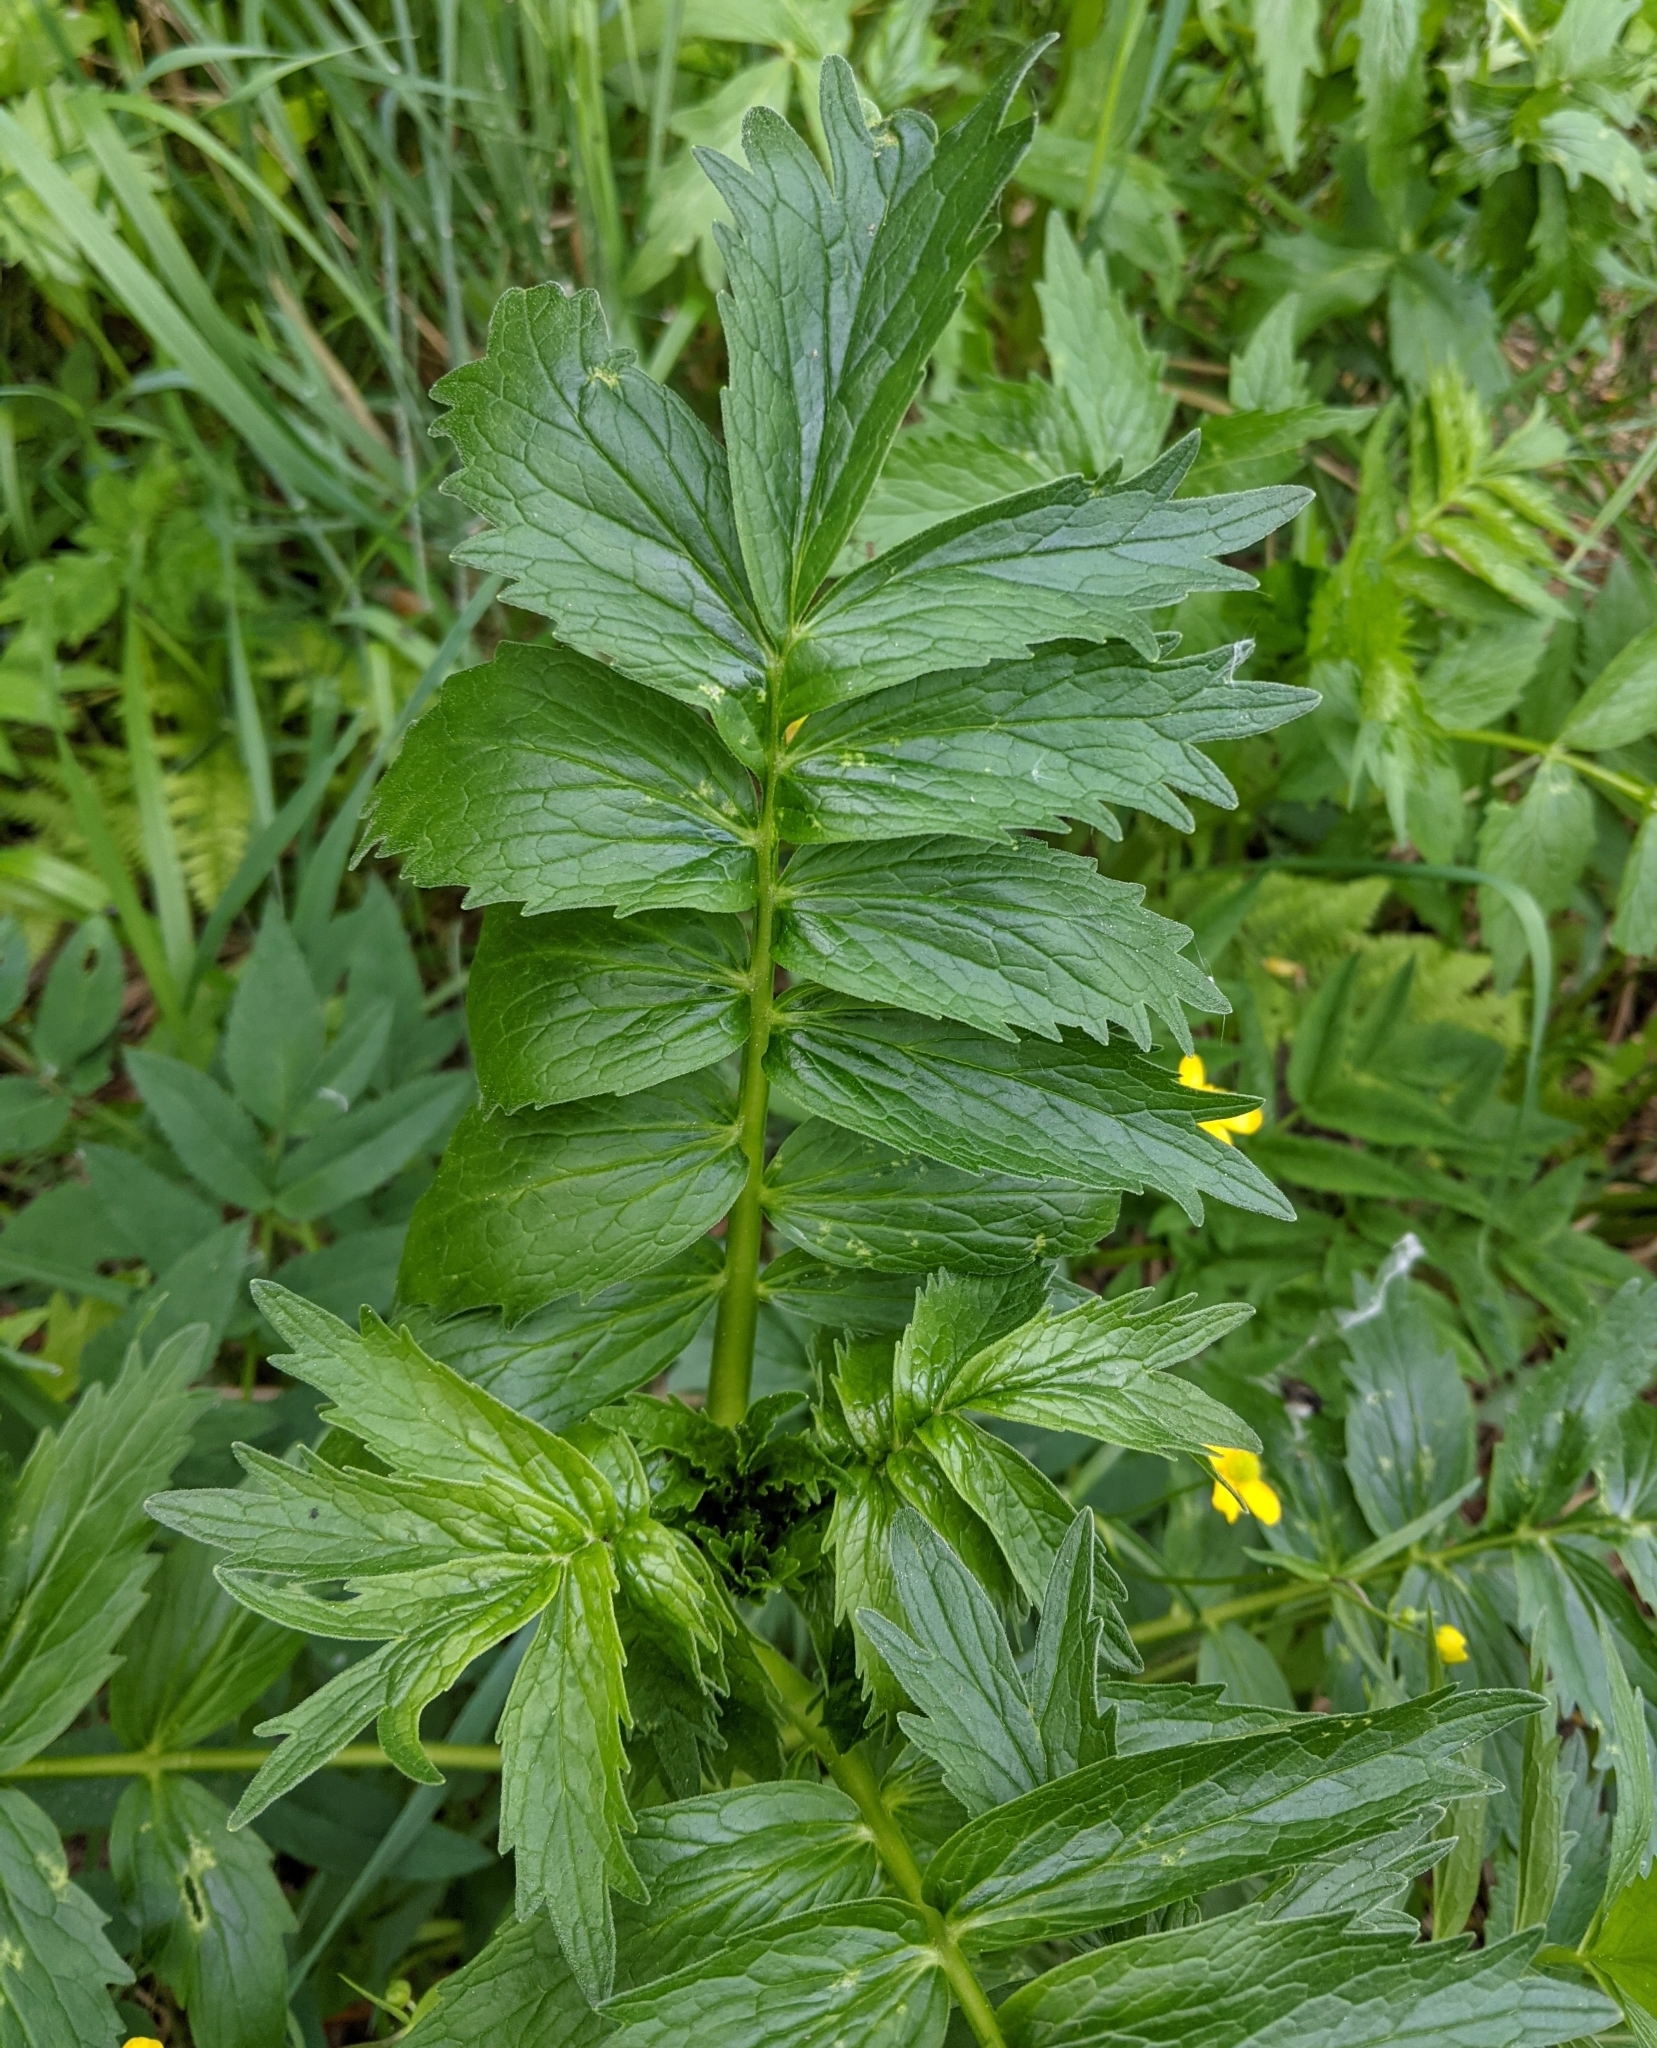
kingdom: Plantae
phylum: Tracheophyta
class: Magnoliopsida
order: Dipsacales
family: Caprifoliaceae
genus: Valeriana
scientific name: Valeriana officinalis
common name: Common valerian
